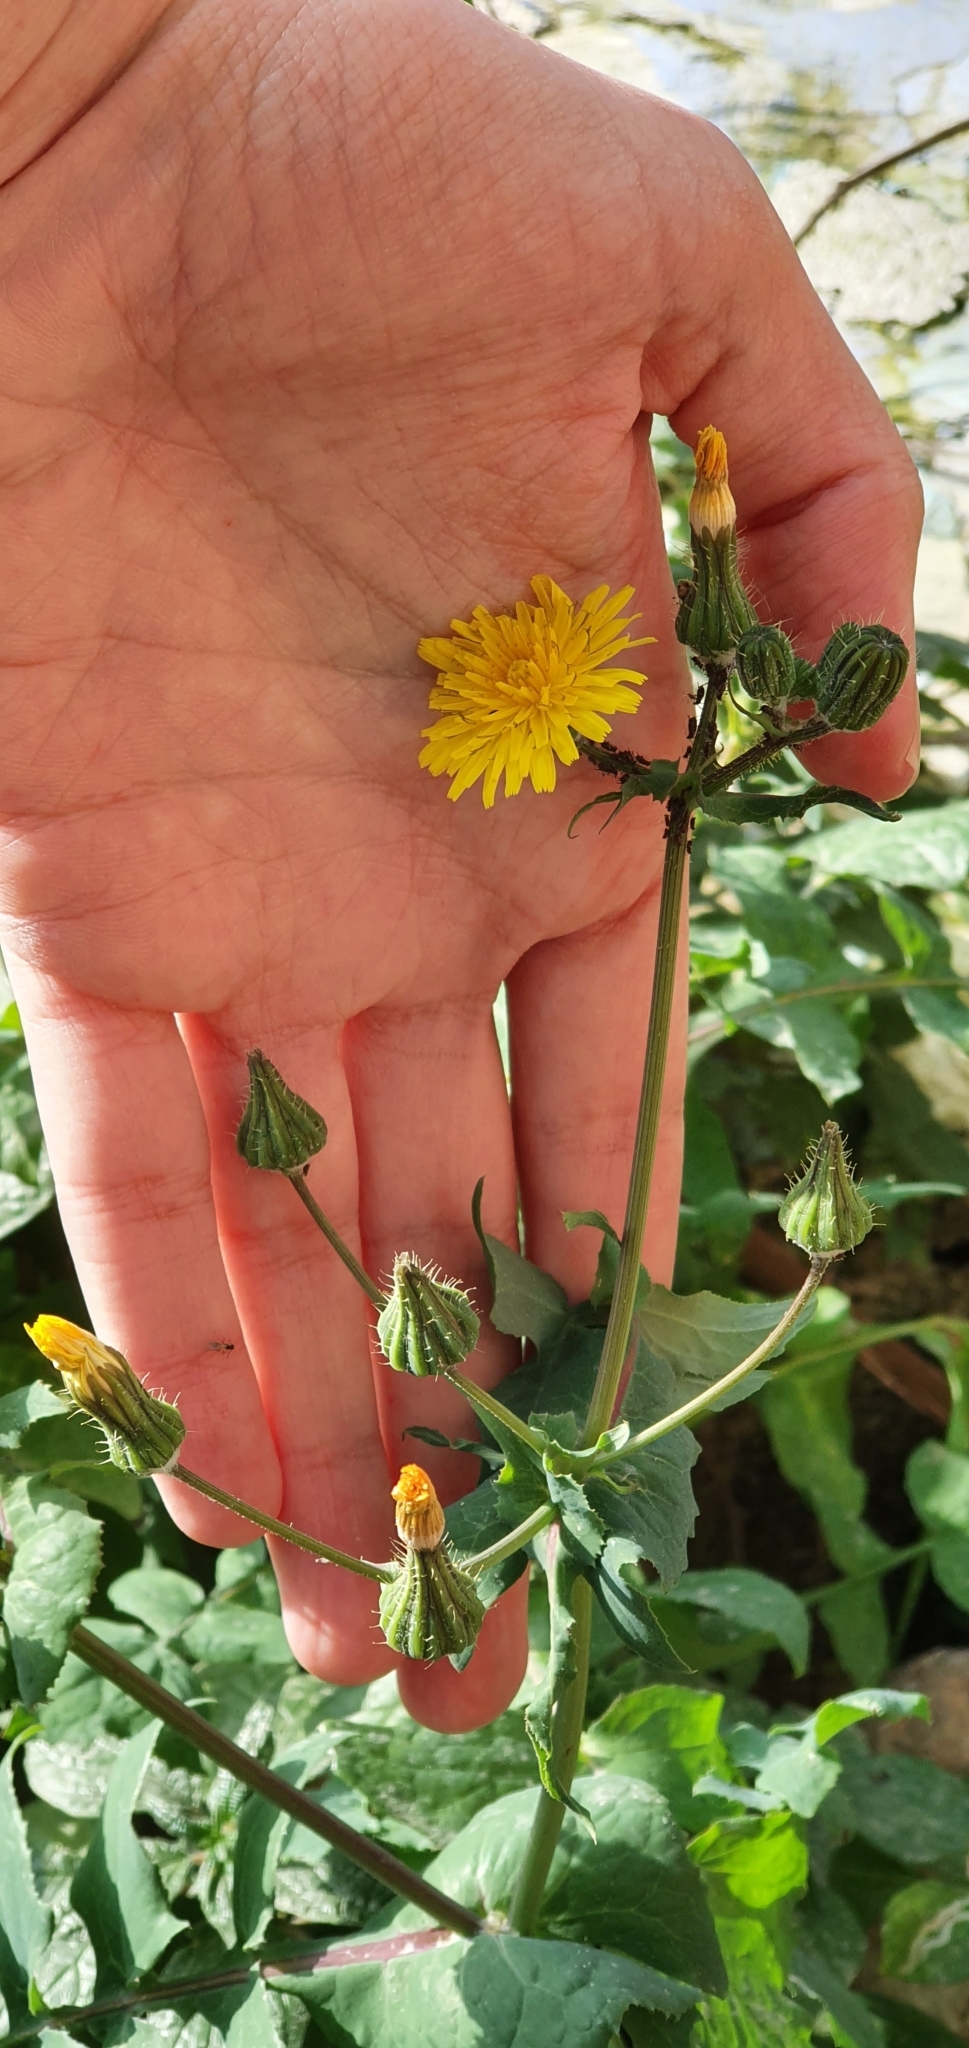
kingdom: Plantae
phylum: Tracheophyta
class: Magnoliopsida
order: Asterales
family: Asteraceae
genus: Sonchus
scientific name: Sonchus tenerrimus
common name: Clammy sowthistle
